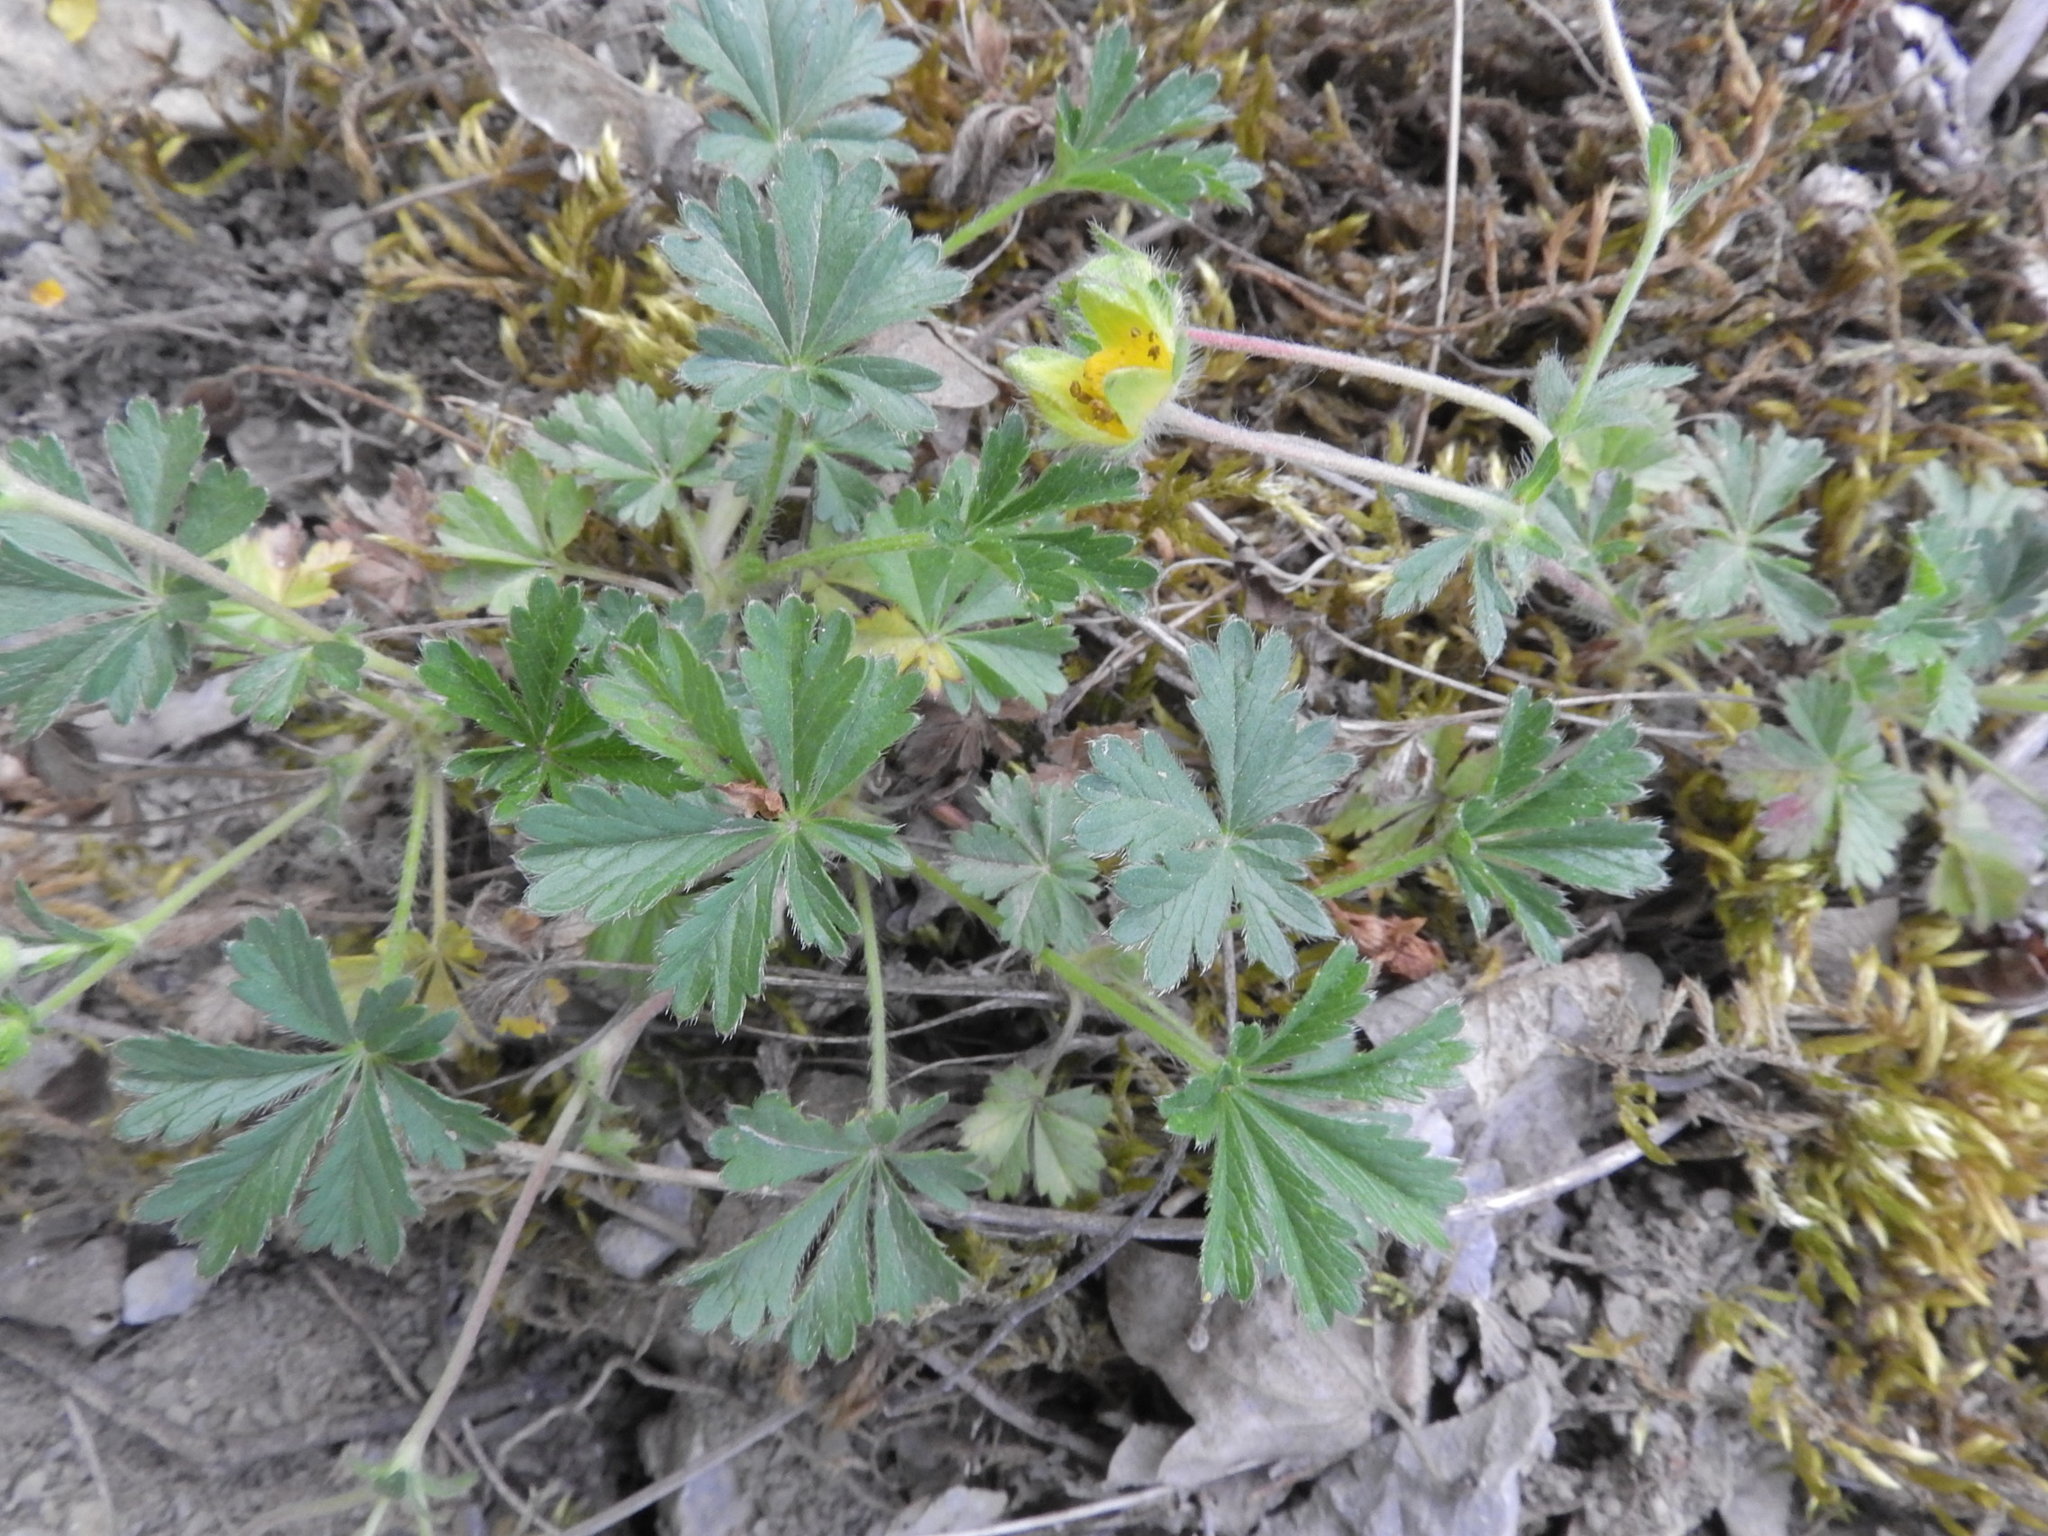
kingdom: Plantae
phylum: Tracheophyta
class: Magnoliopsida
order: Rosales
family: Rosaceae
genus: Potentilla
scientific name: Potentilla incana
